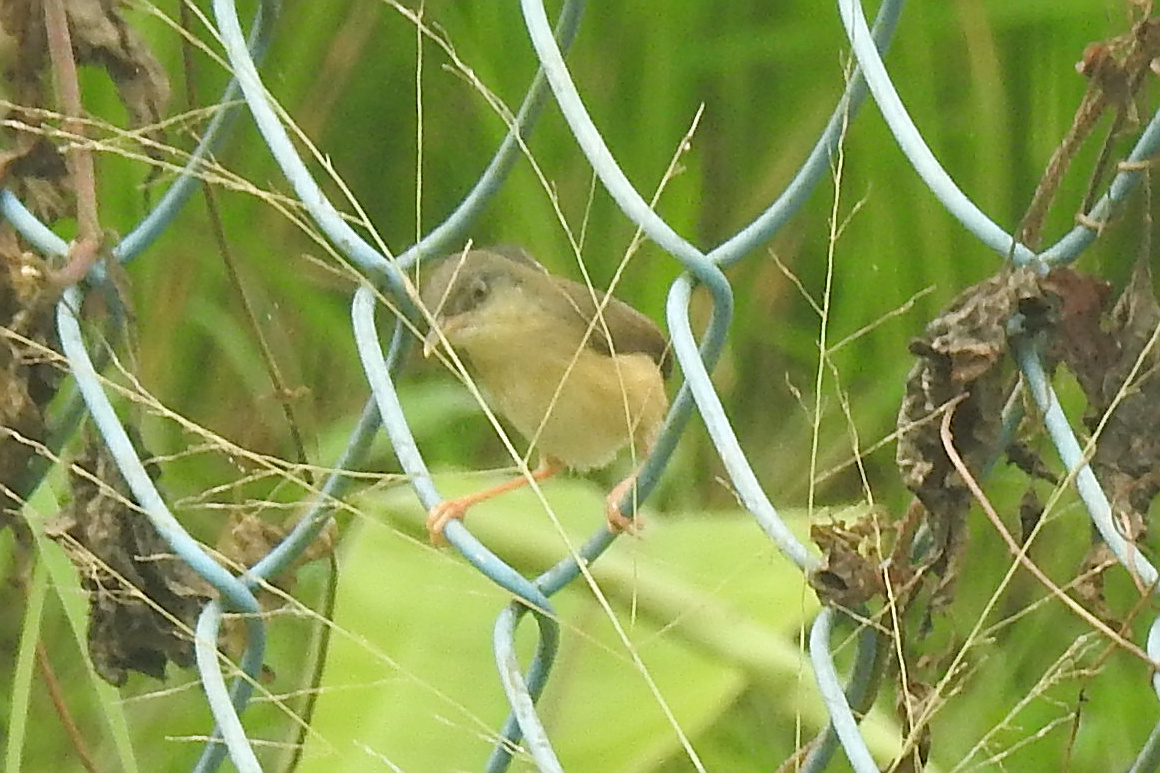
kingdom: Animalia
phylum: Chordata
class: Aves
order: Passeriformes
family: Cisticolidae
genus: Prinia
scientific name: Prinia socialis
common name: Ashy prinia
